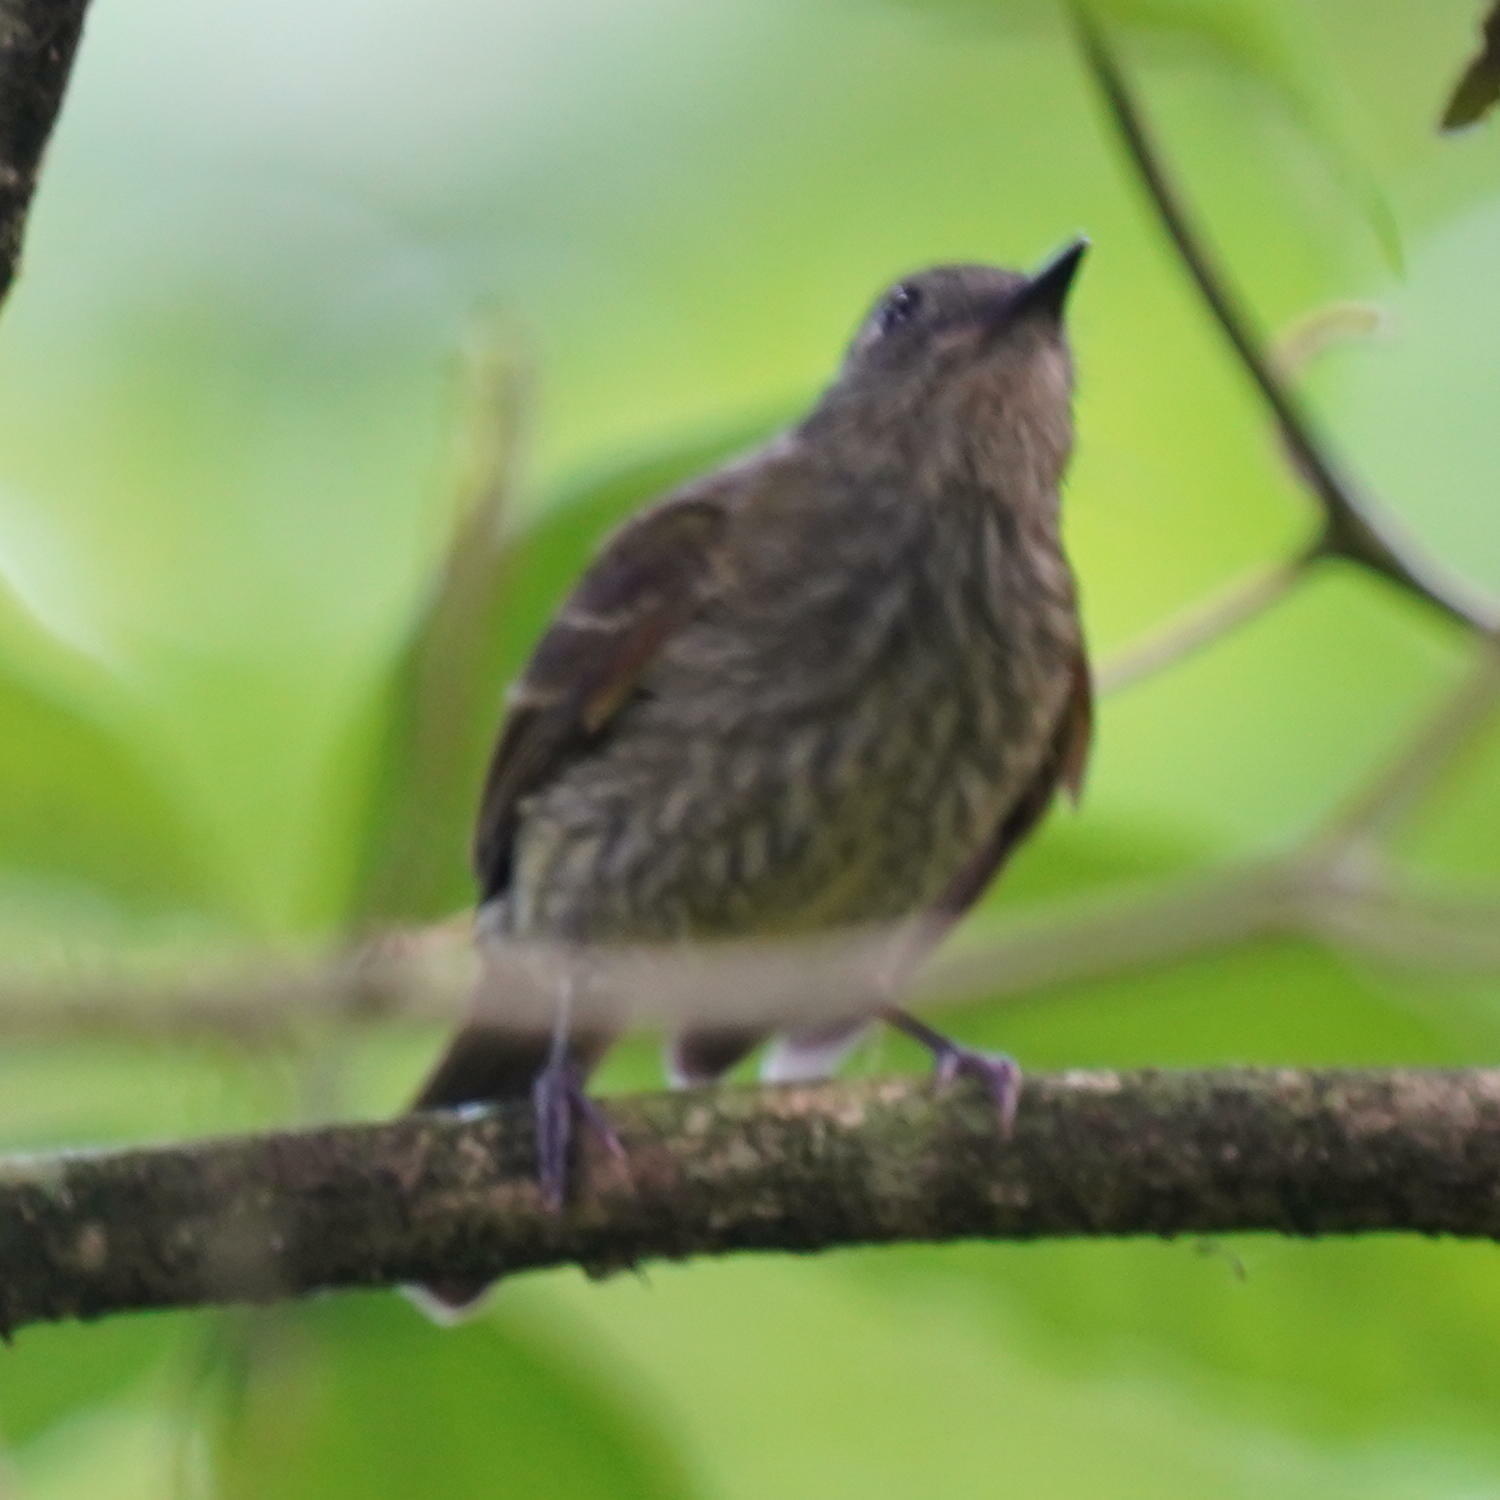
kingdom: Animalia
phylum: Chordata
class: Aves
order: Passeriformes
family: Tyrannidae
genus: Mionectes
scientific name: Mionectes galbinus
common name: Olive-striped flycatcher
